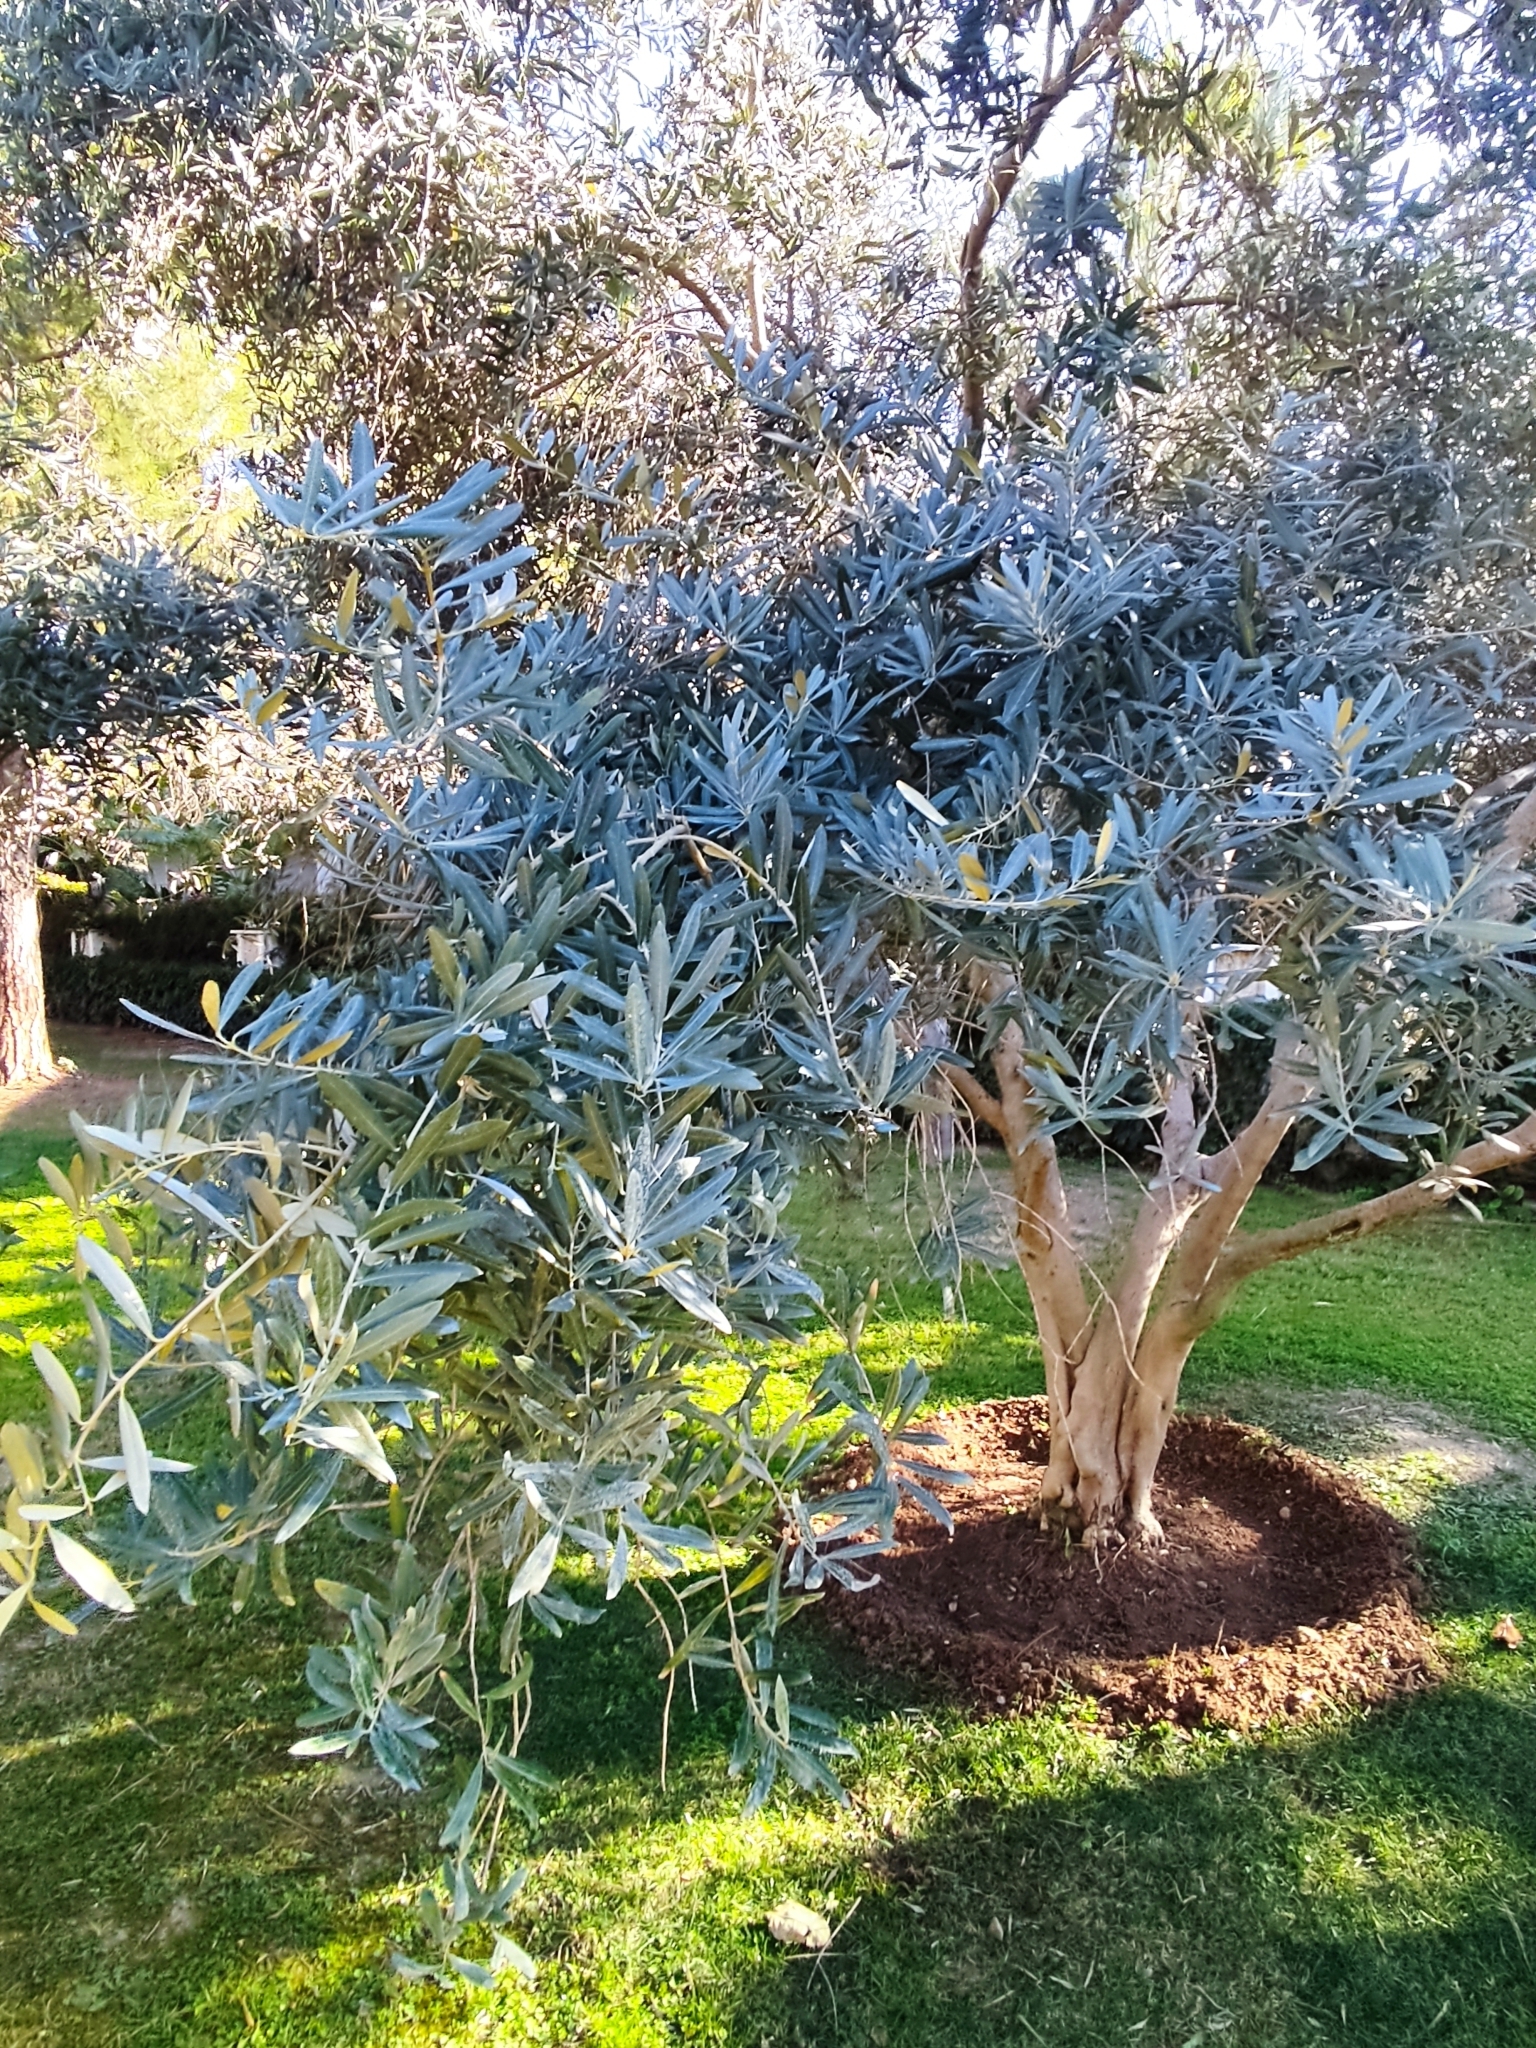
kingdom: Plantae
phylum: Tracheophyta
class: Magnoliopsida
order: Lamiales
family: Oleaceae
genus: Olea
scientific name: Olea europaea
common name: Olive
